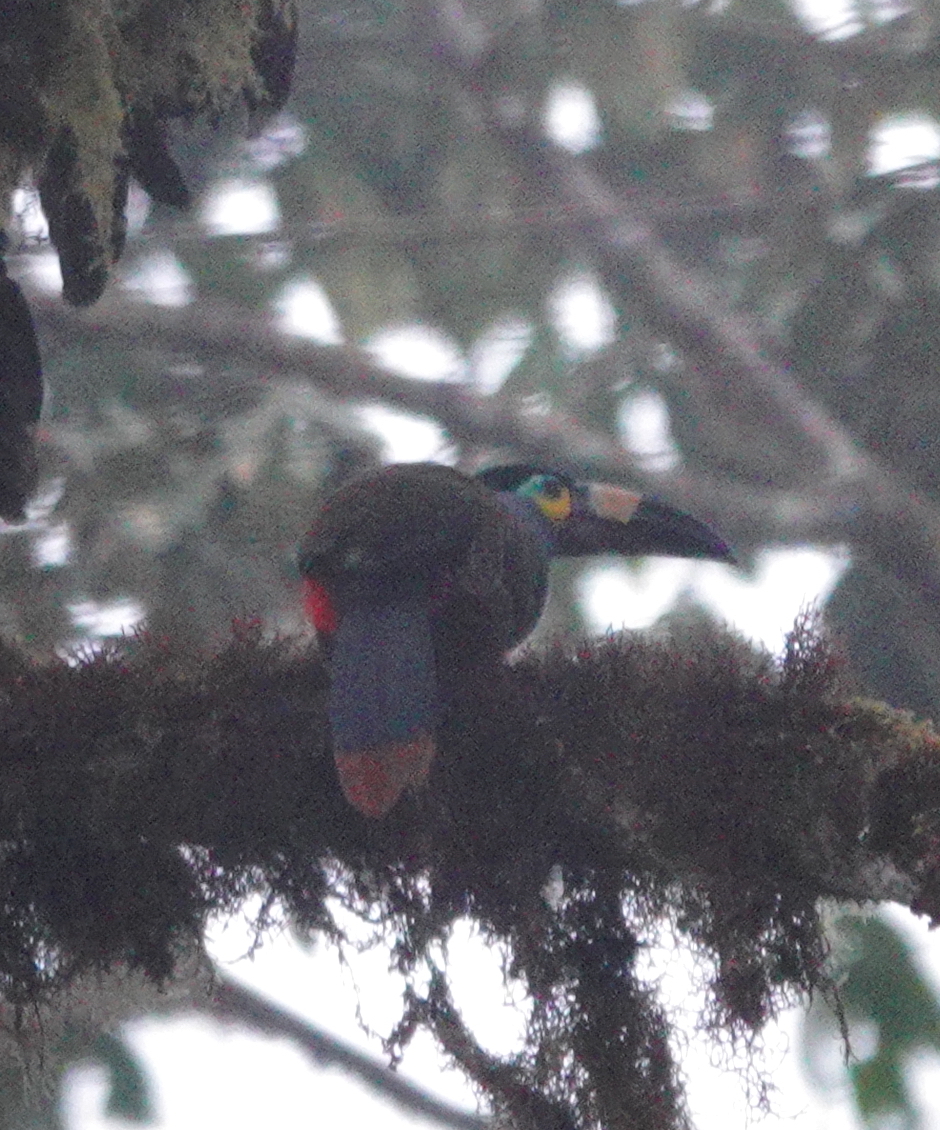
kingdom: Animalia
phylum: Chordata
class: Aves
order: Piciformes
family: Ramphastidae
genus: Andigena
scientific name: Andigena laminirostris
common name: Plate-billed mountain toucan
